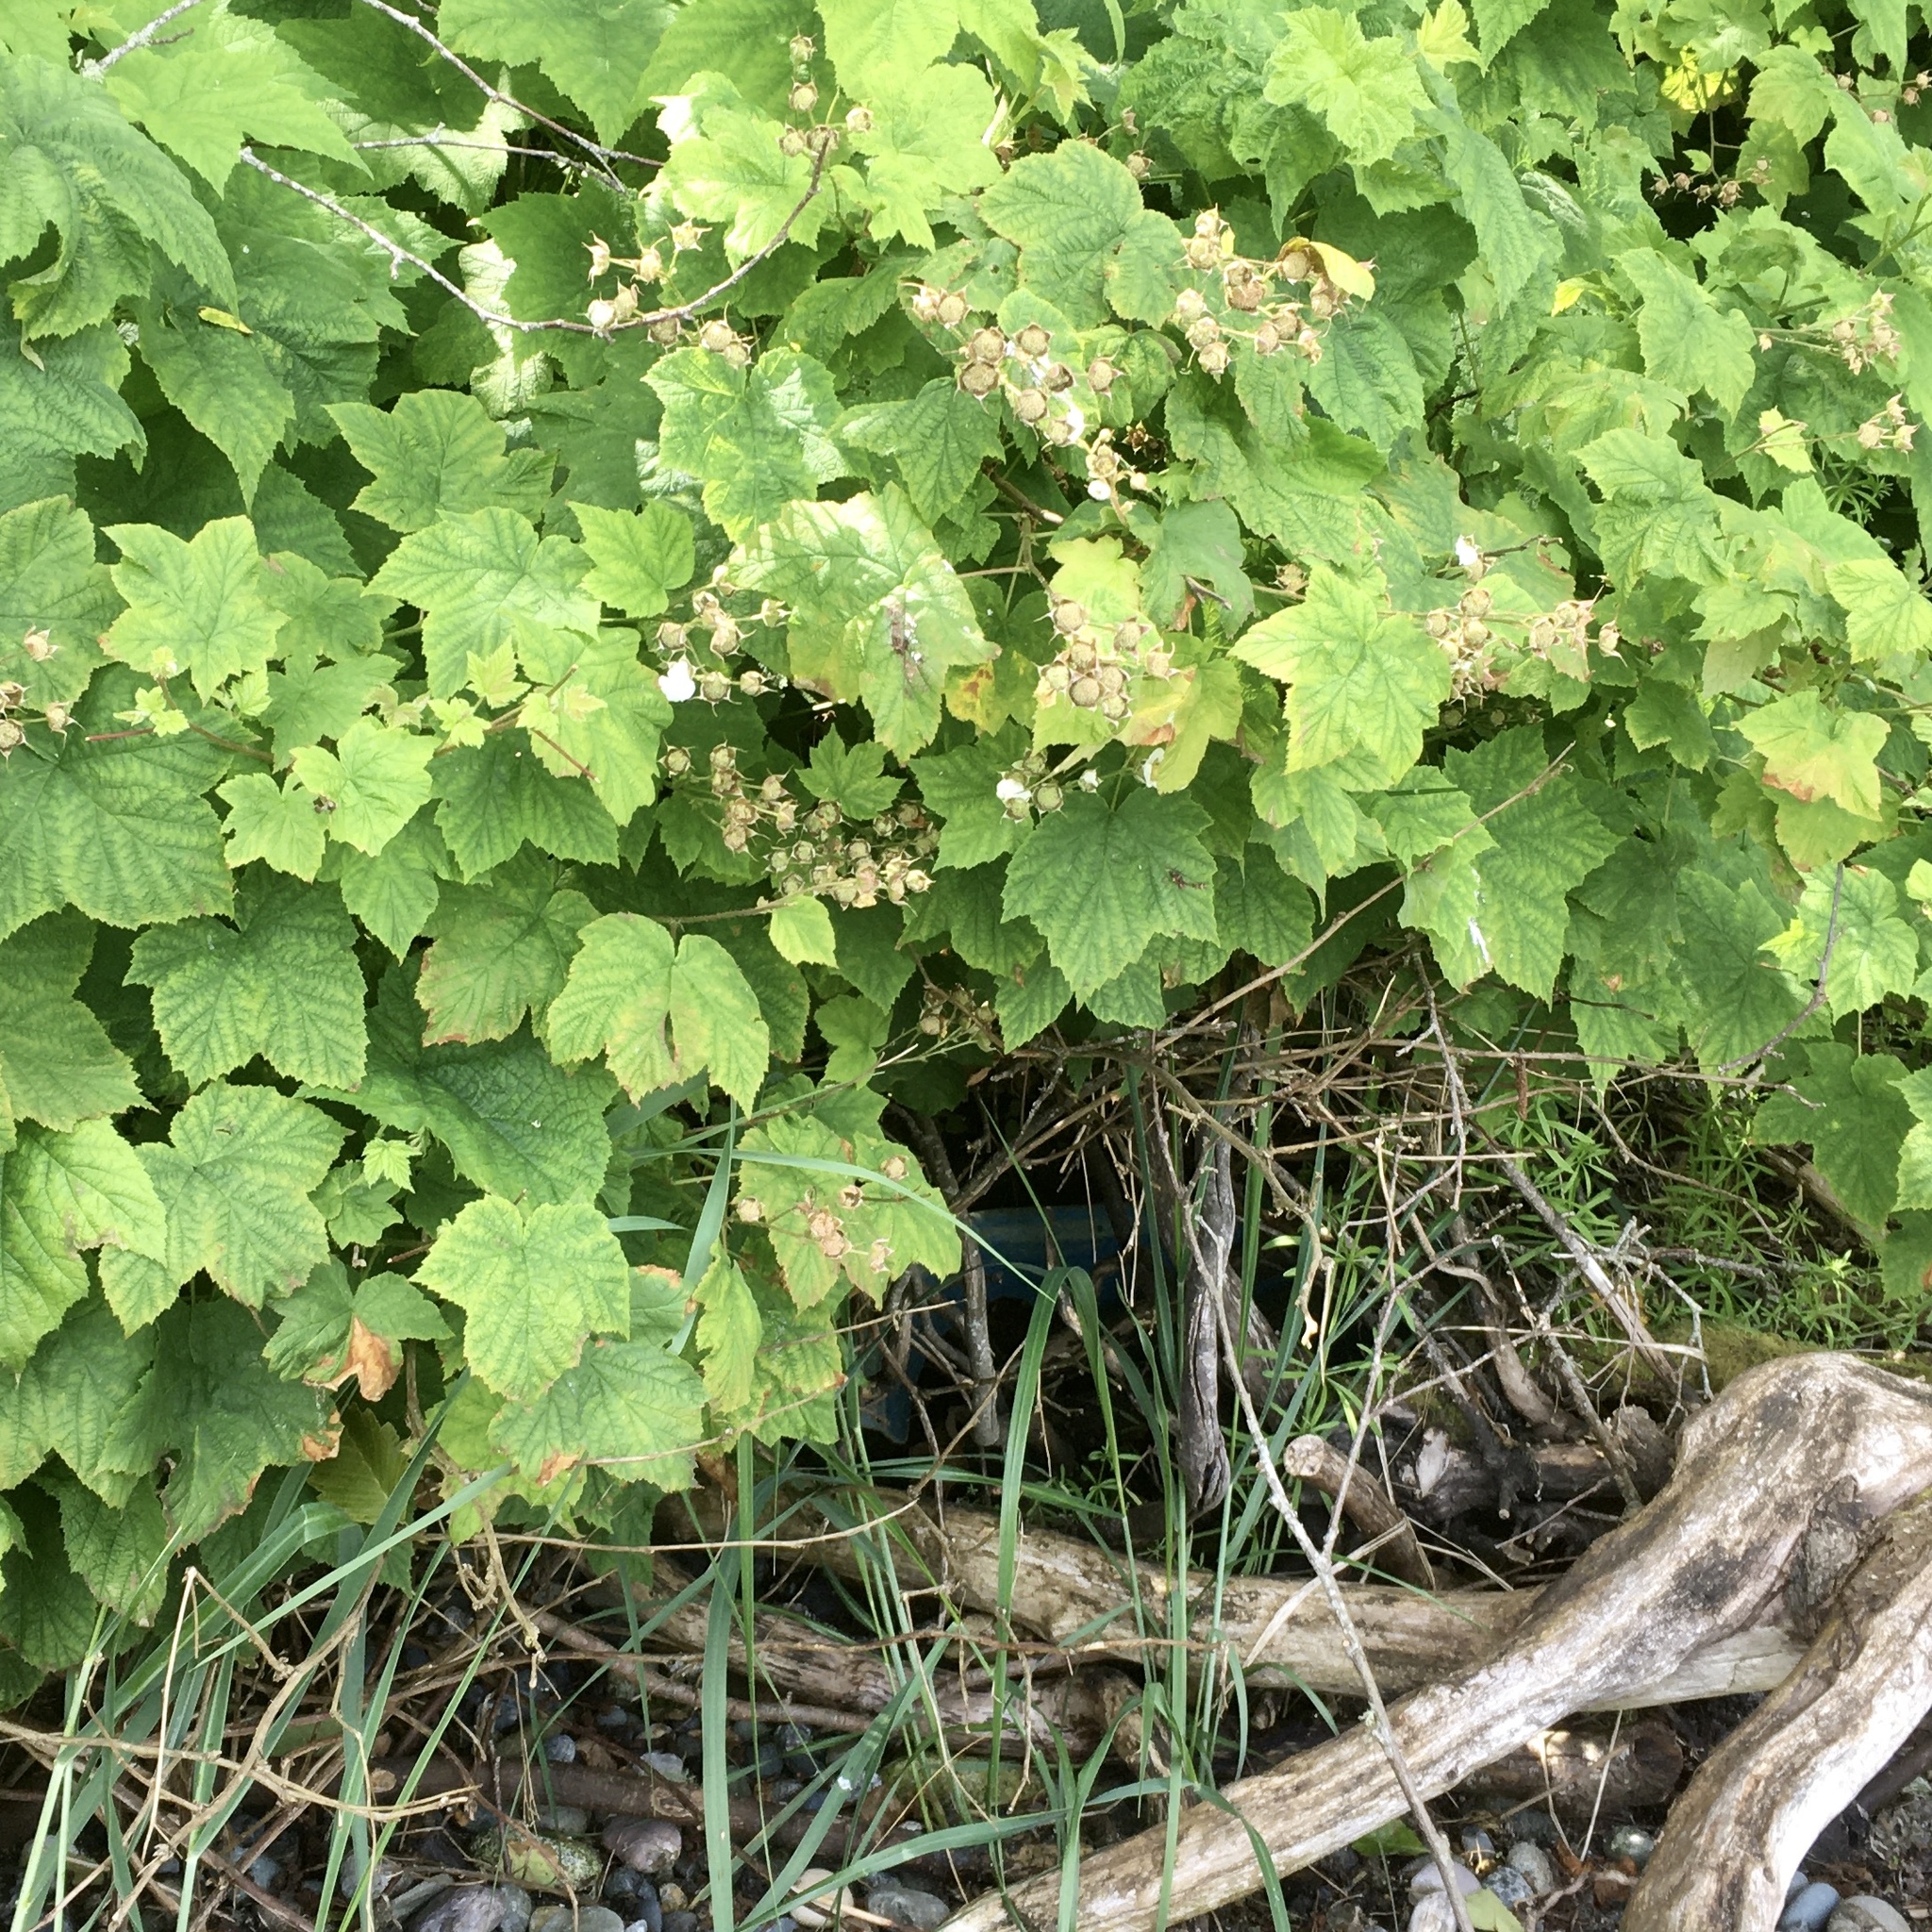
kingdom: Plantae
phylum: Tracheophyta
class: Magnoliopsida
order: Rosales
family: Rosaceae
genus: Rubus
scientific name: Rubus parviflorus
